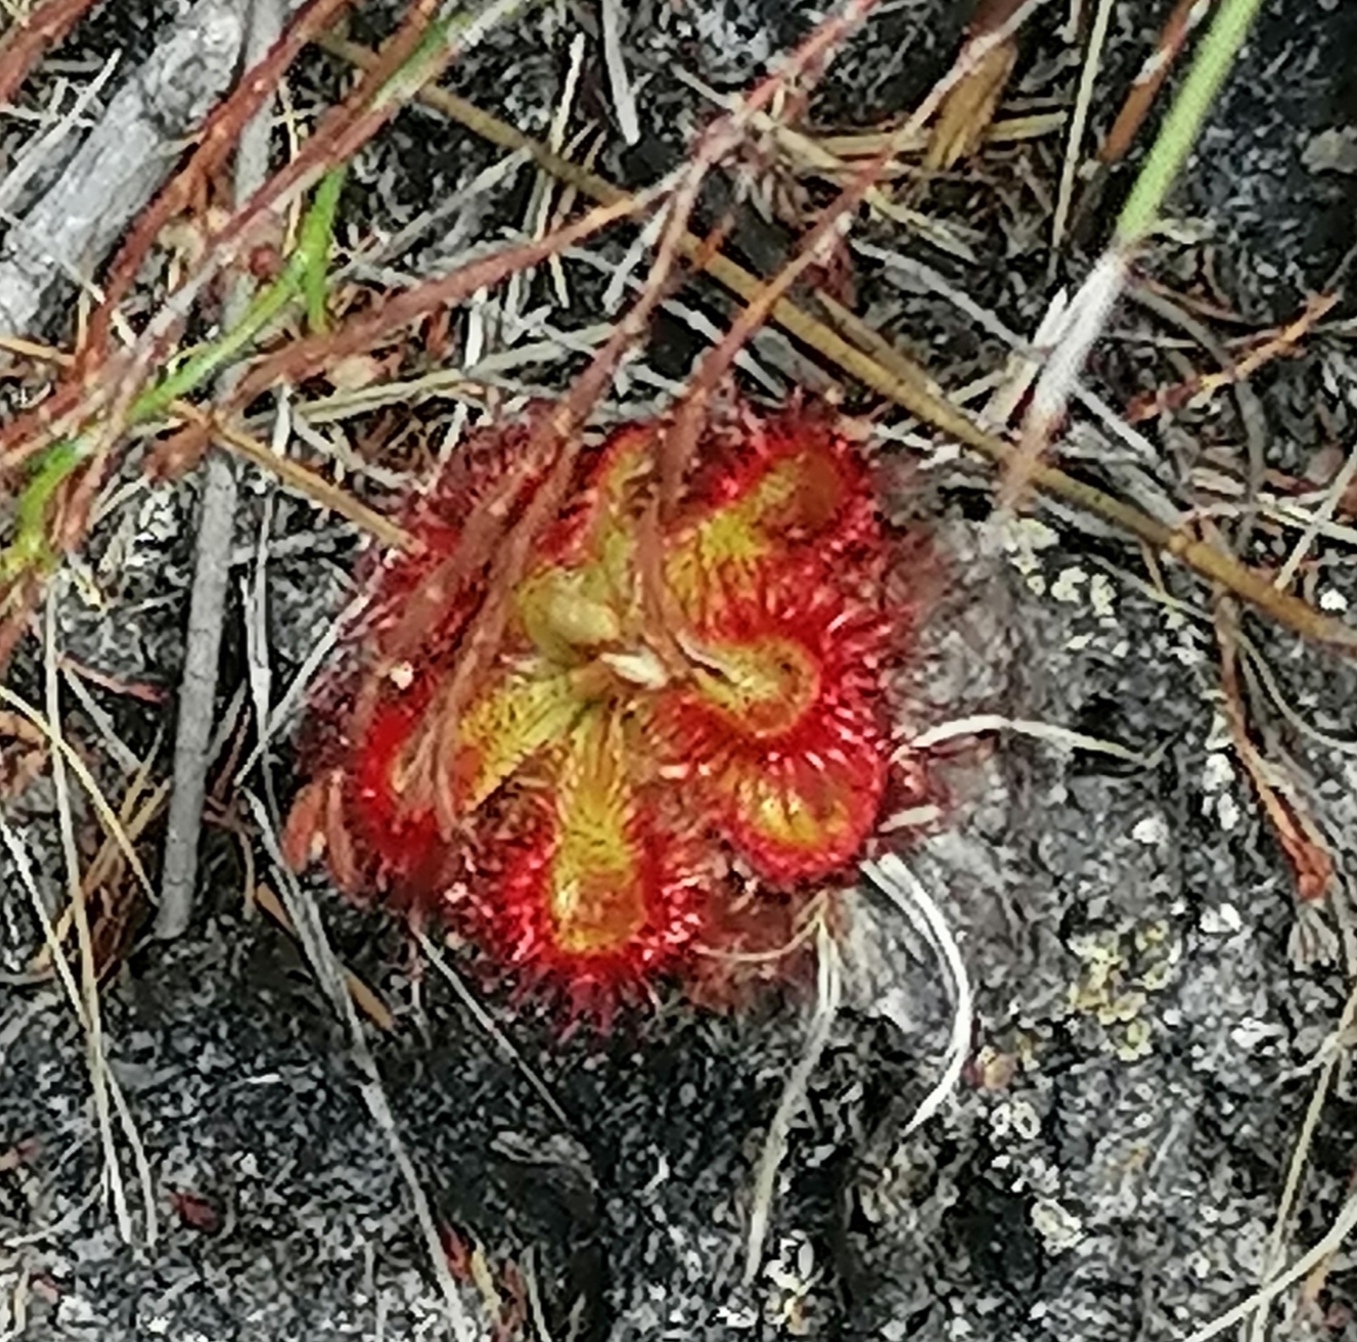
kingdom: Plantae
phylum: Tracheophyta
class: Magnoliopsida
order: Caryophyllales
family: Droseraceae
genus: Drosera
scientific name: Drosera xerophila
